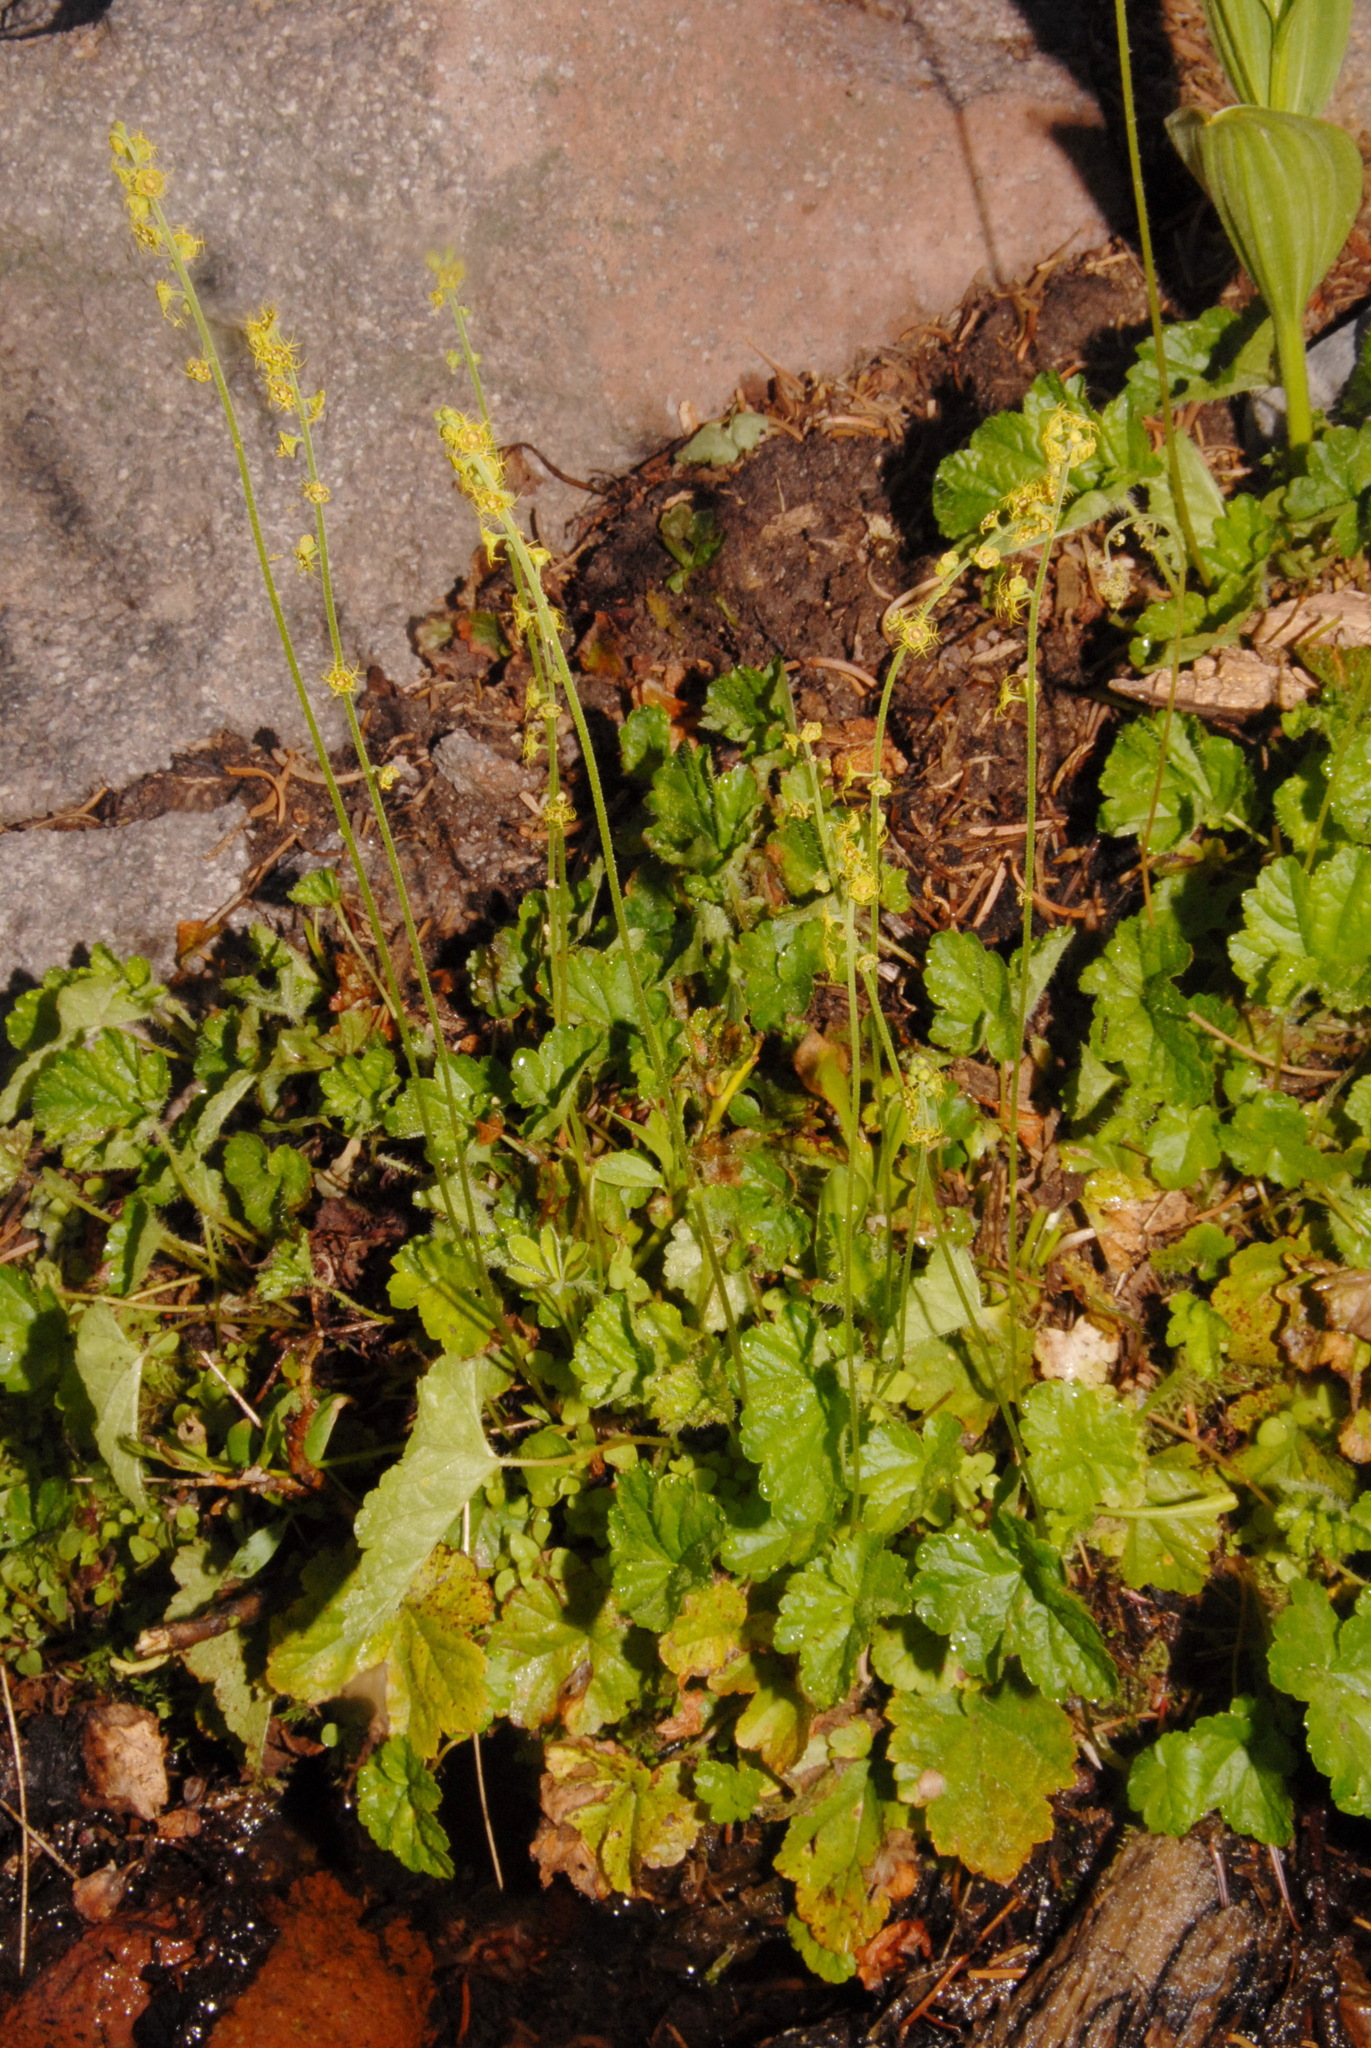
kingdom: Plantae
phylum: Tracheophyta
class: Magnoliopsida
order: Saxifragales
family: Saxifragaceae
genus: Pectiantia
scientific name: Pectiantia pentandra
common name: Alpine bishop's-cap
